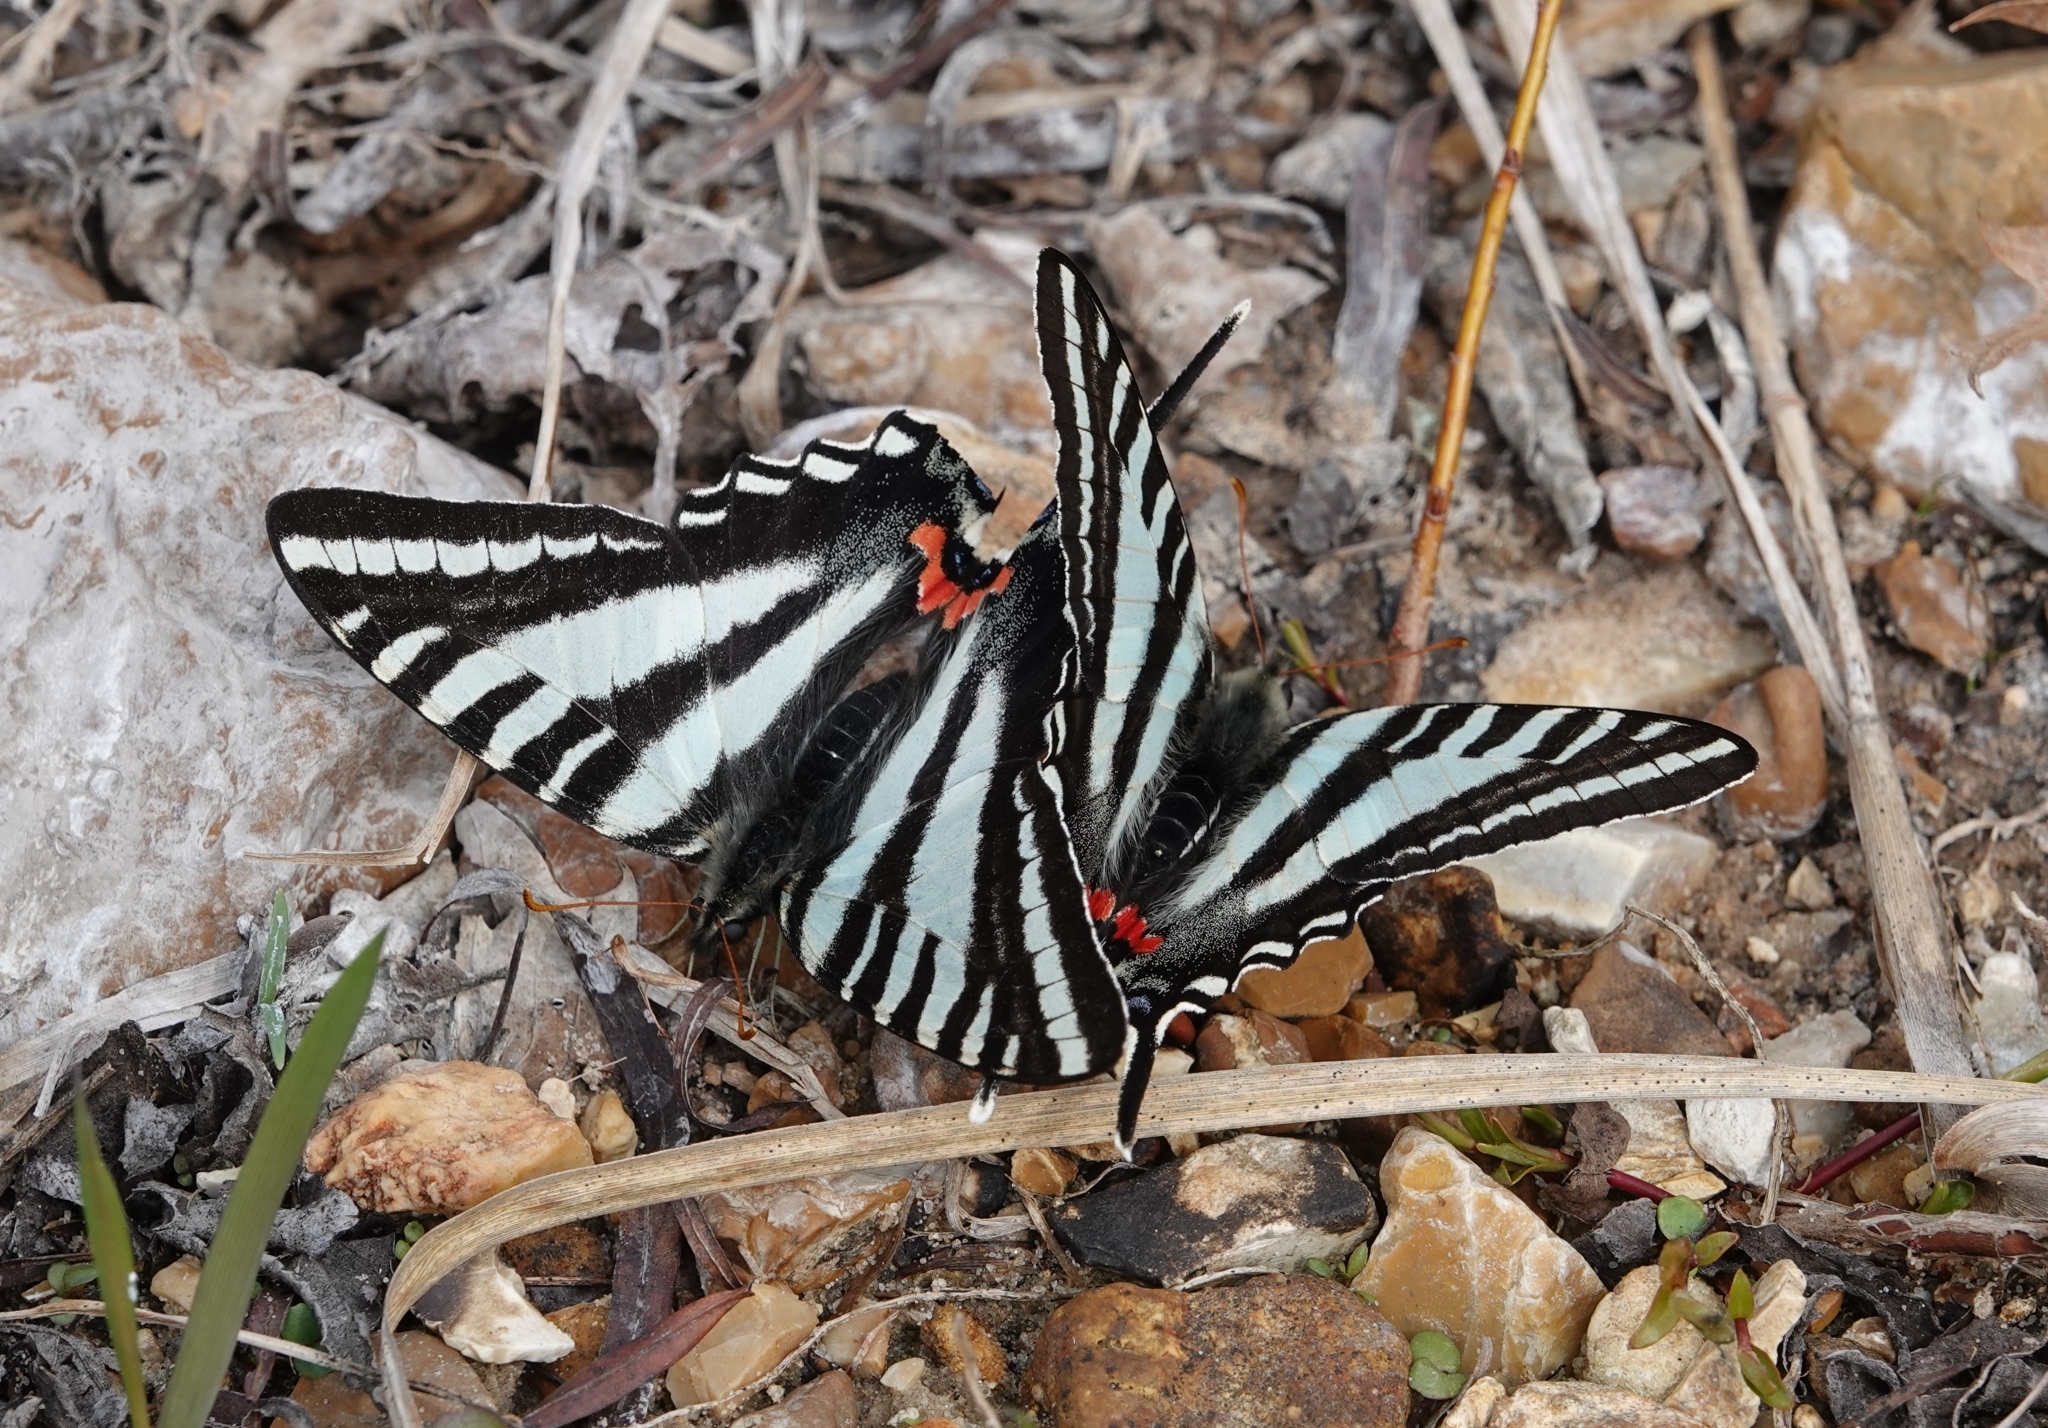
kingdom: Animalia
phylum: Arthropoda
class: Insecta
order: Lepidoptera
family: Papilionidae
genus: Protographium
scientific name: Protographium marcellus
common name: Zebra swallowtail
